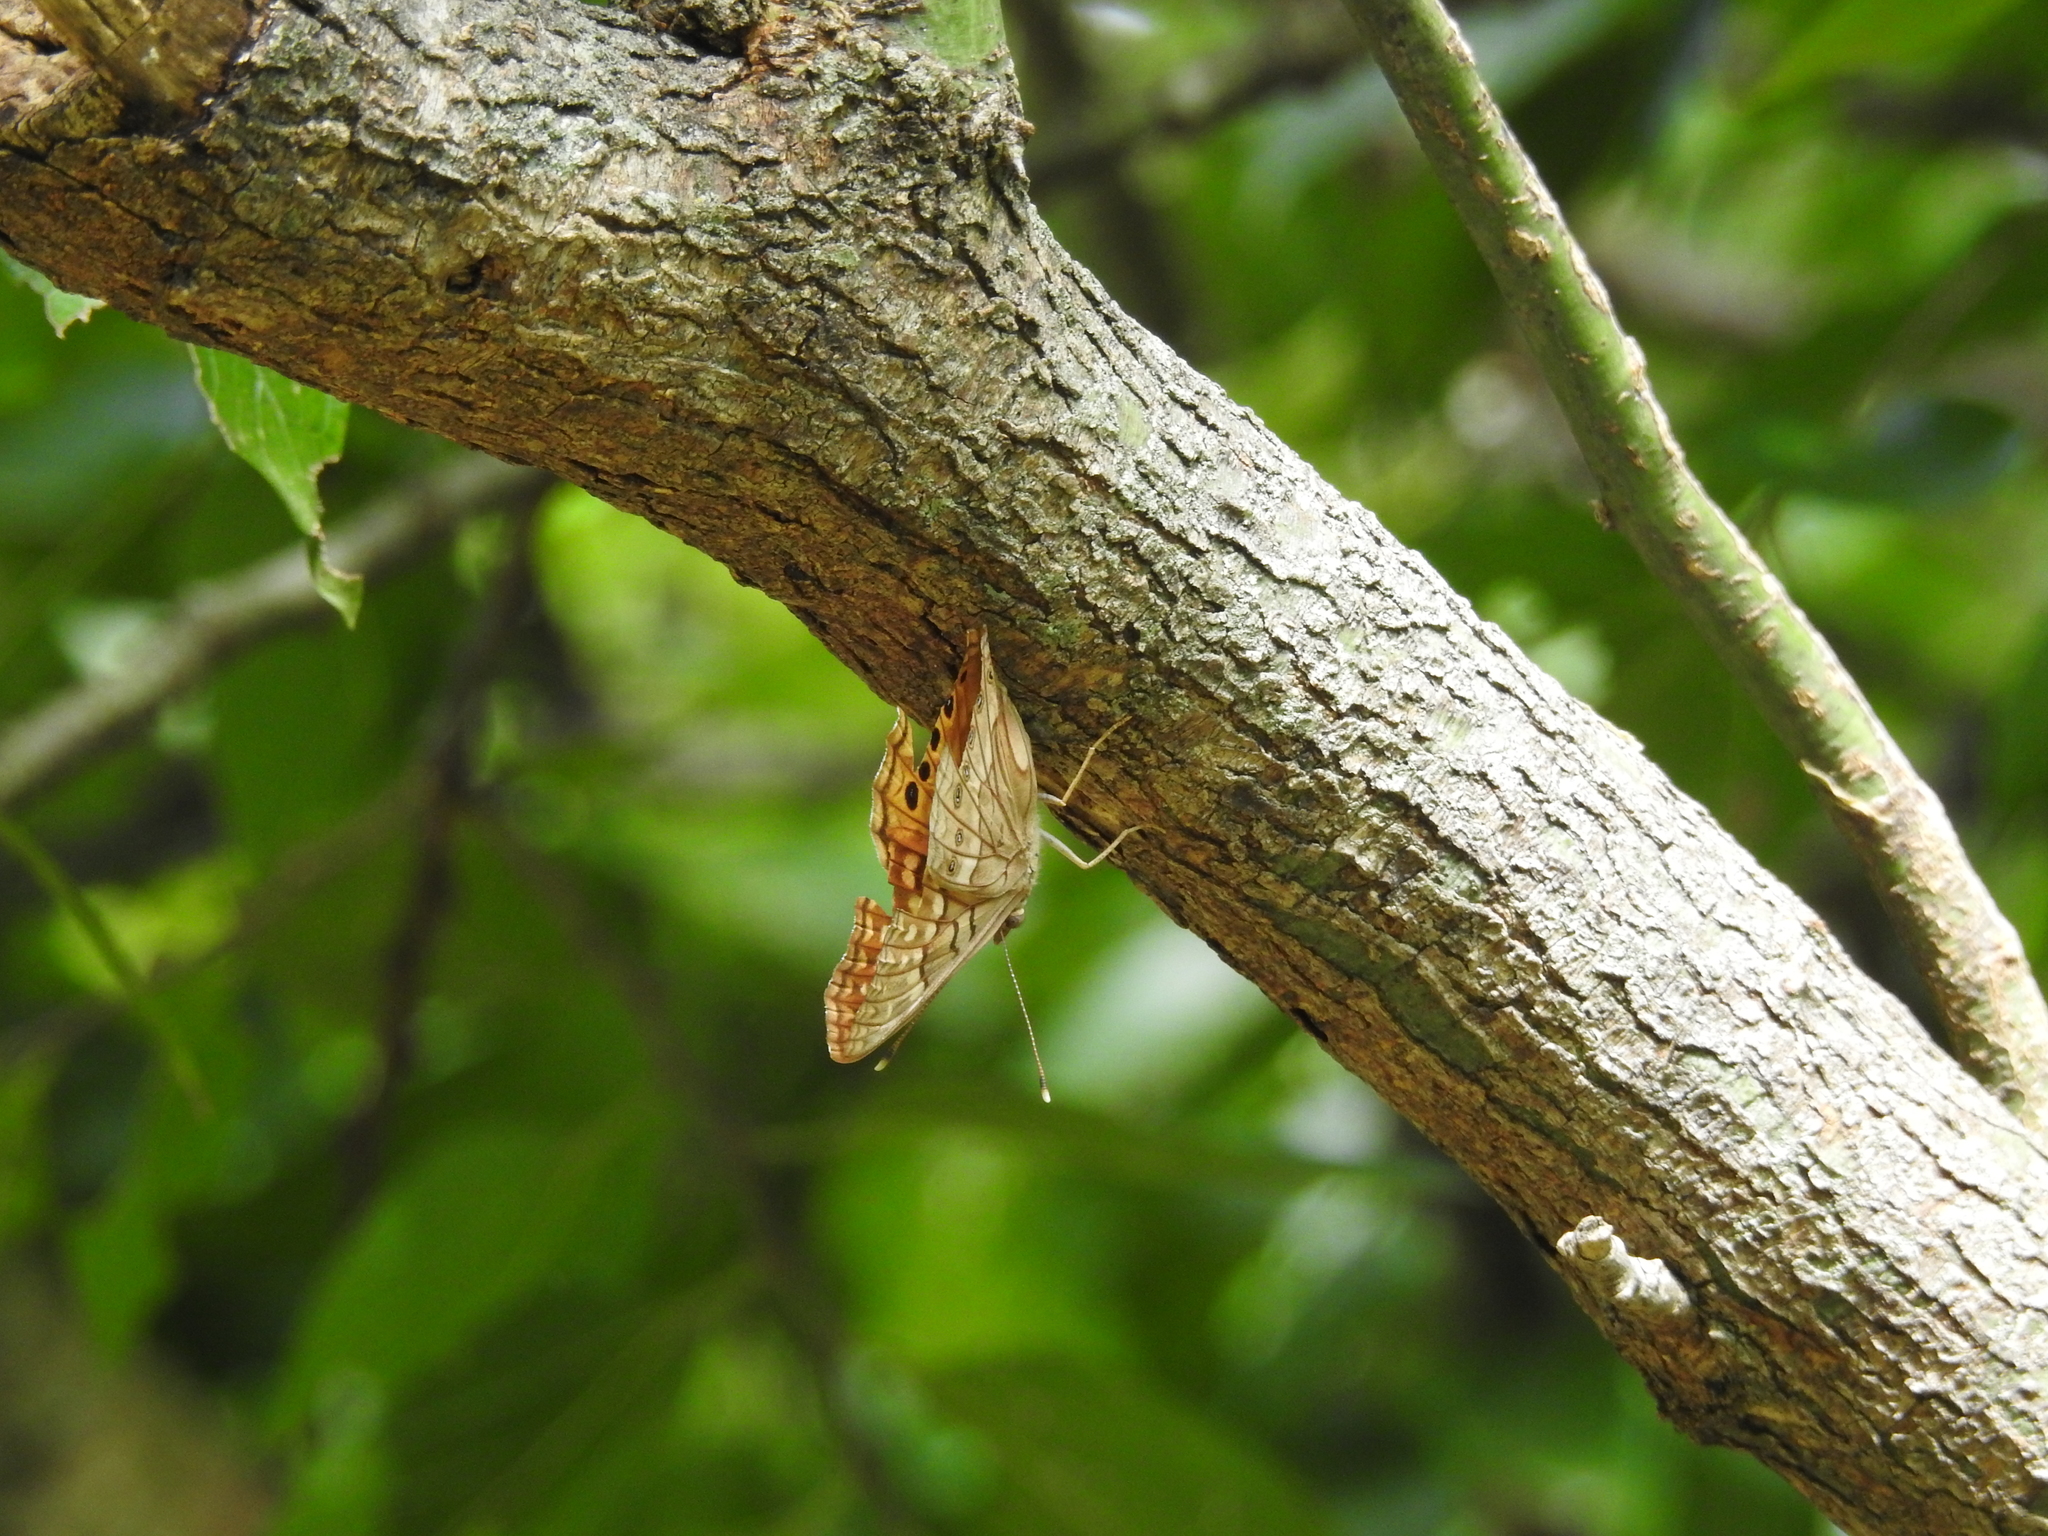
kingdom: Animalia
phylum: Arthropoda
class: Insecta
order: Lepidoptera
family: Nymphalidae
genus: Asterocampa
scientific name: Asterocampa clyton
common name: Tawny emperor
